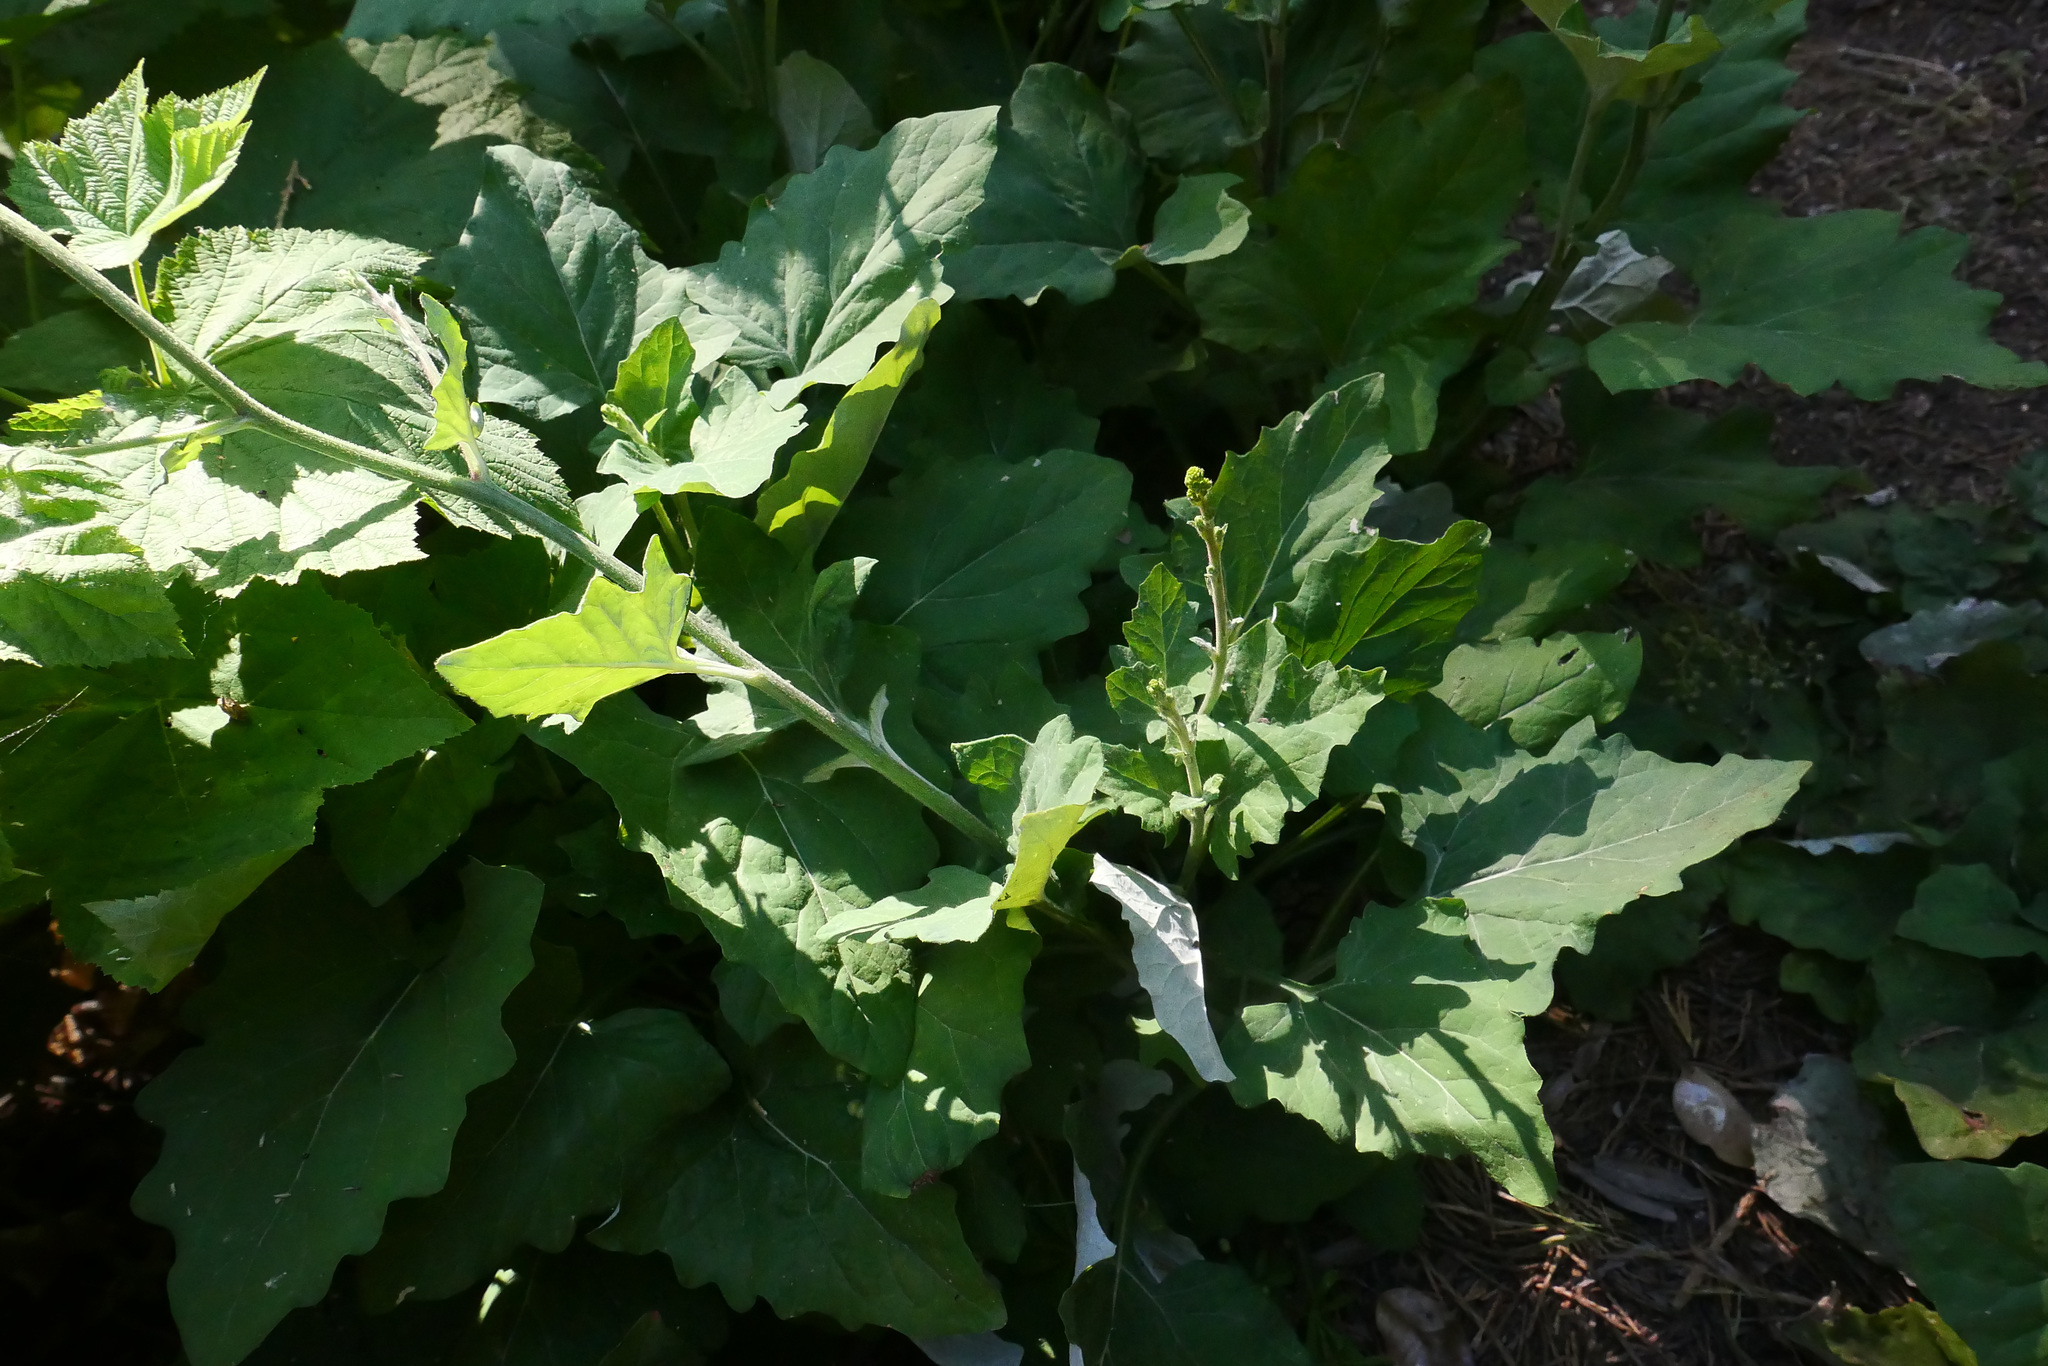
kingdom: Plantae
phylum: Tracheophyta
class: Magnoliopsida
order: Asterales
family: Asteraceae
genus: Adenocaulon
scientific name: Adenocaulon bicolor
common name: Trailplant
